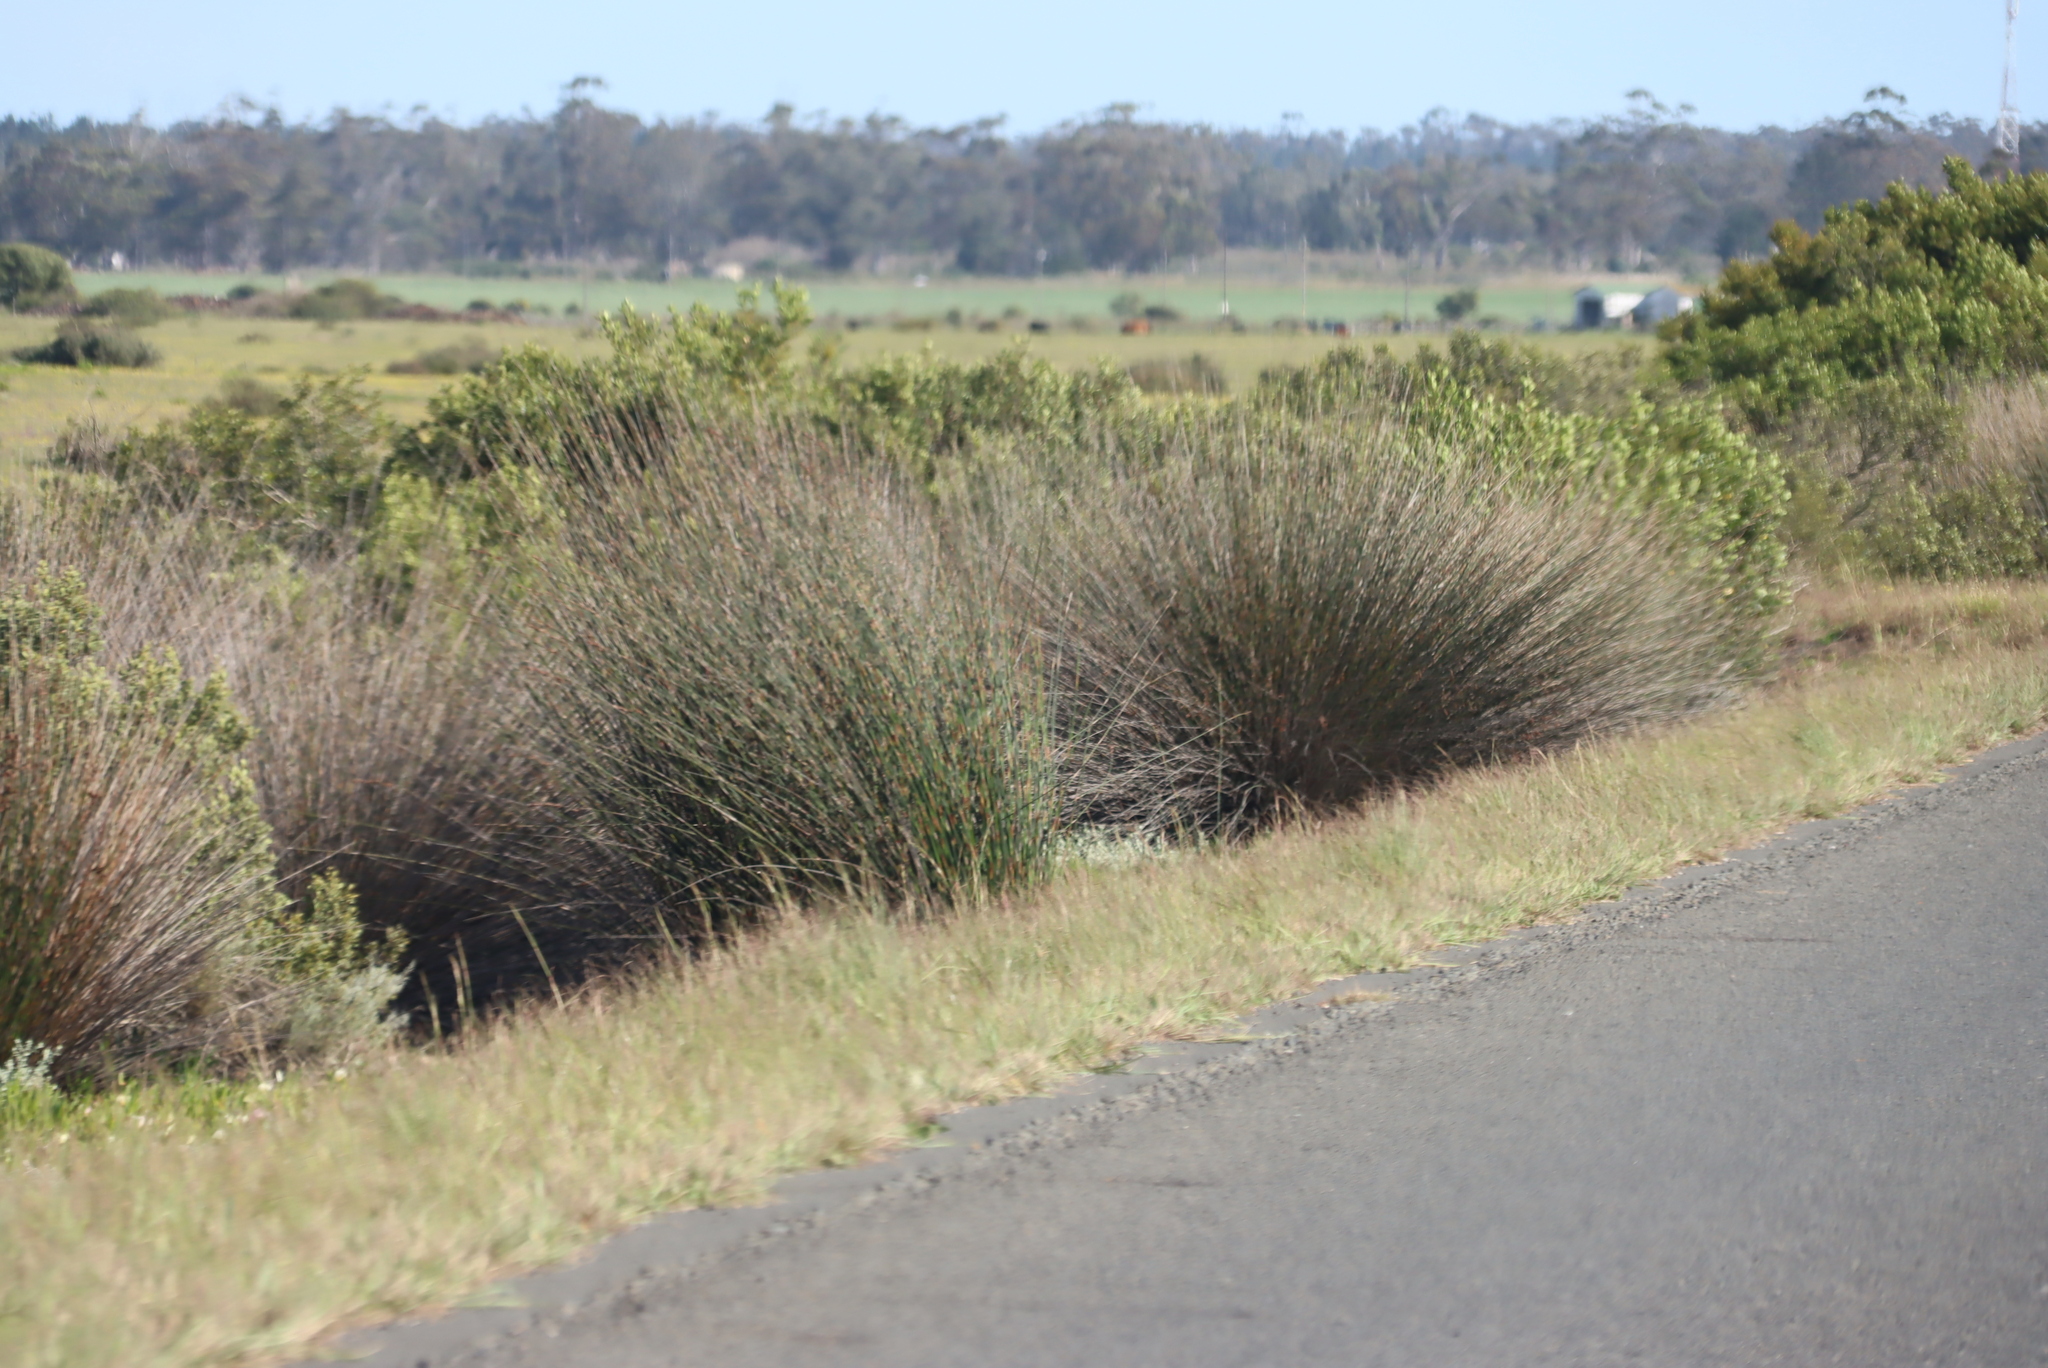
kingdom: Plantae
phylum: Tracheophyta
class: Liliopsida
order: Poales
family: Restionaceae
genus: Thamnochortus
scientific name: Thamnochortus insignis
